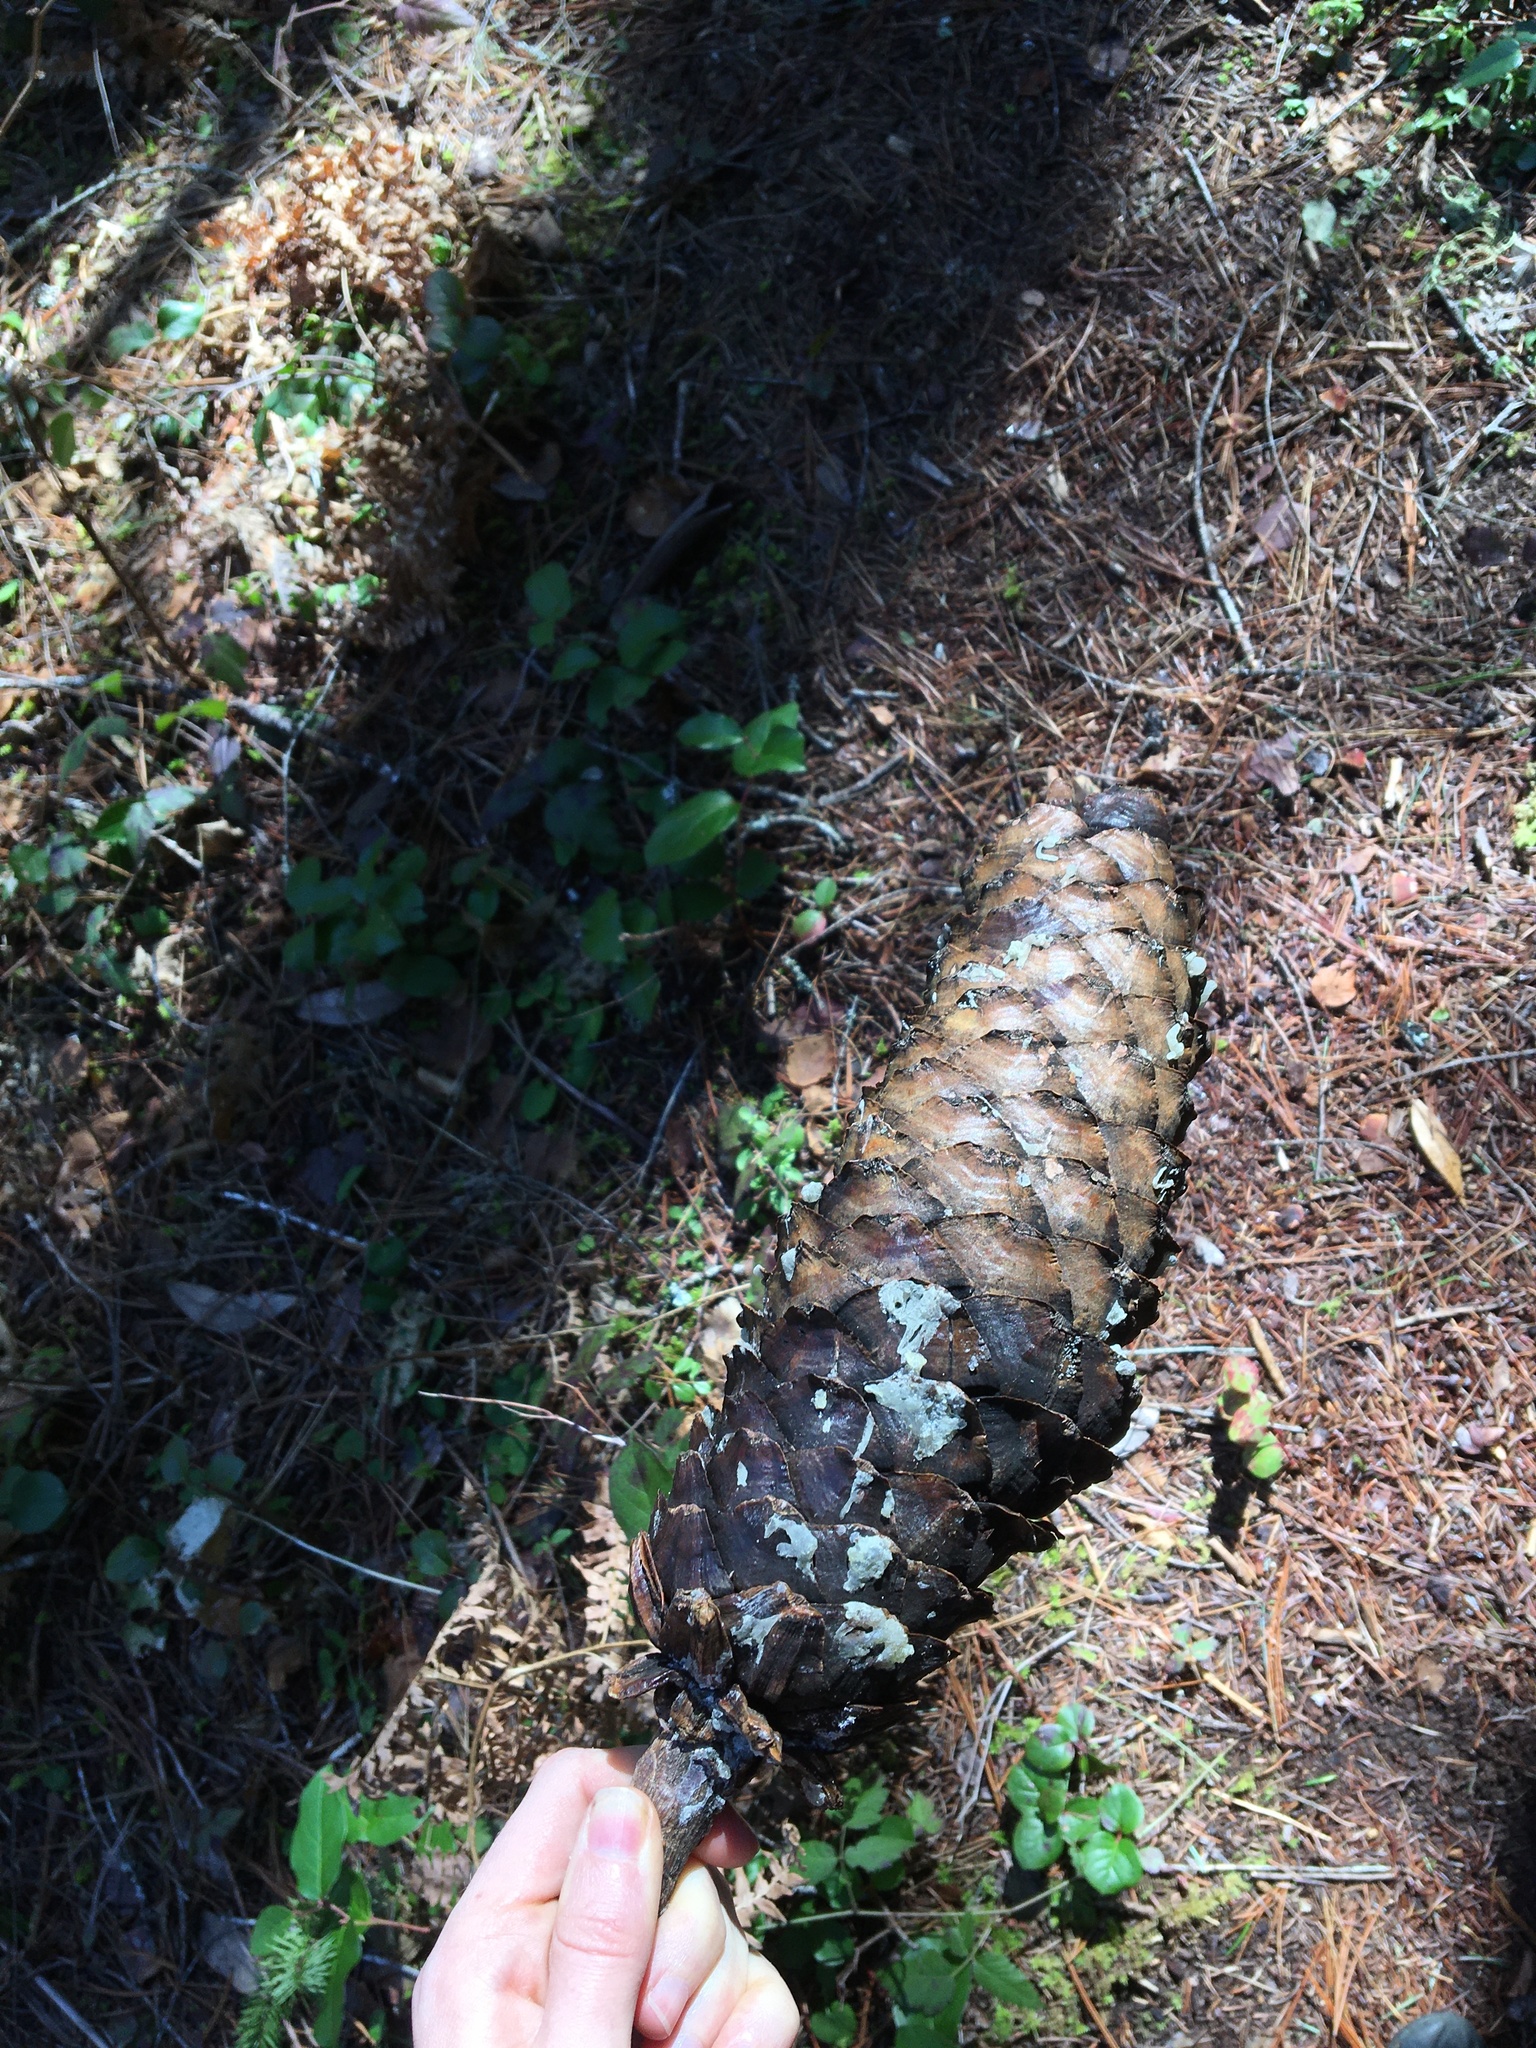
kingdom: Plantae
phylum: Tracheophyta
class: Pinopsida
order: Pinales
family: Pinaceae
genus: Pinus
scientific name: Pinus lambertiana
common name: Sugar pine
